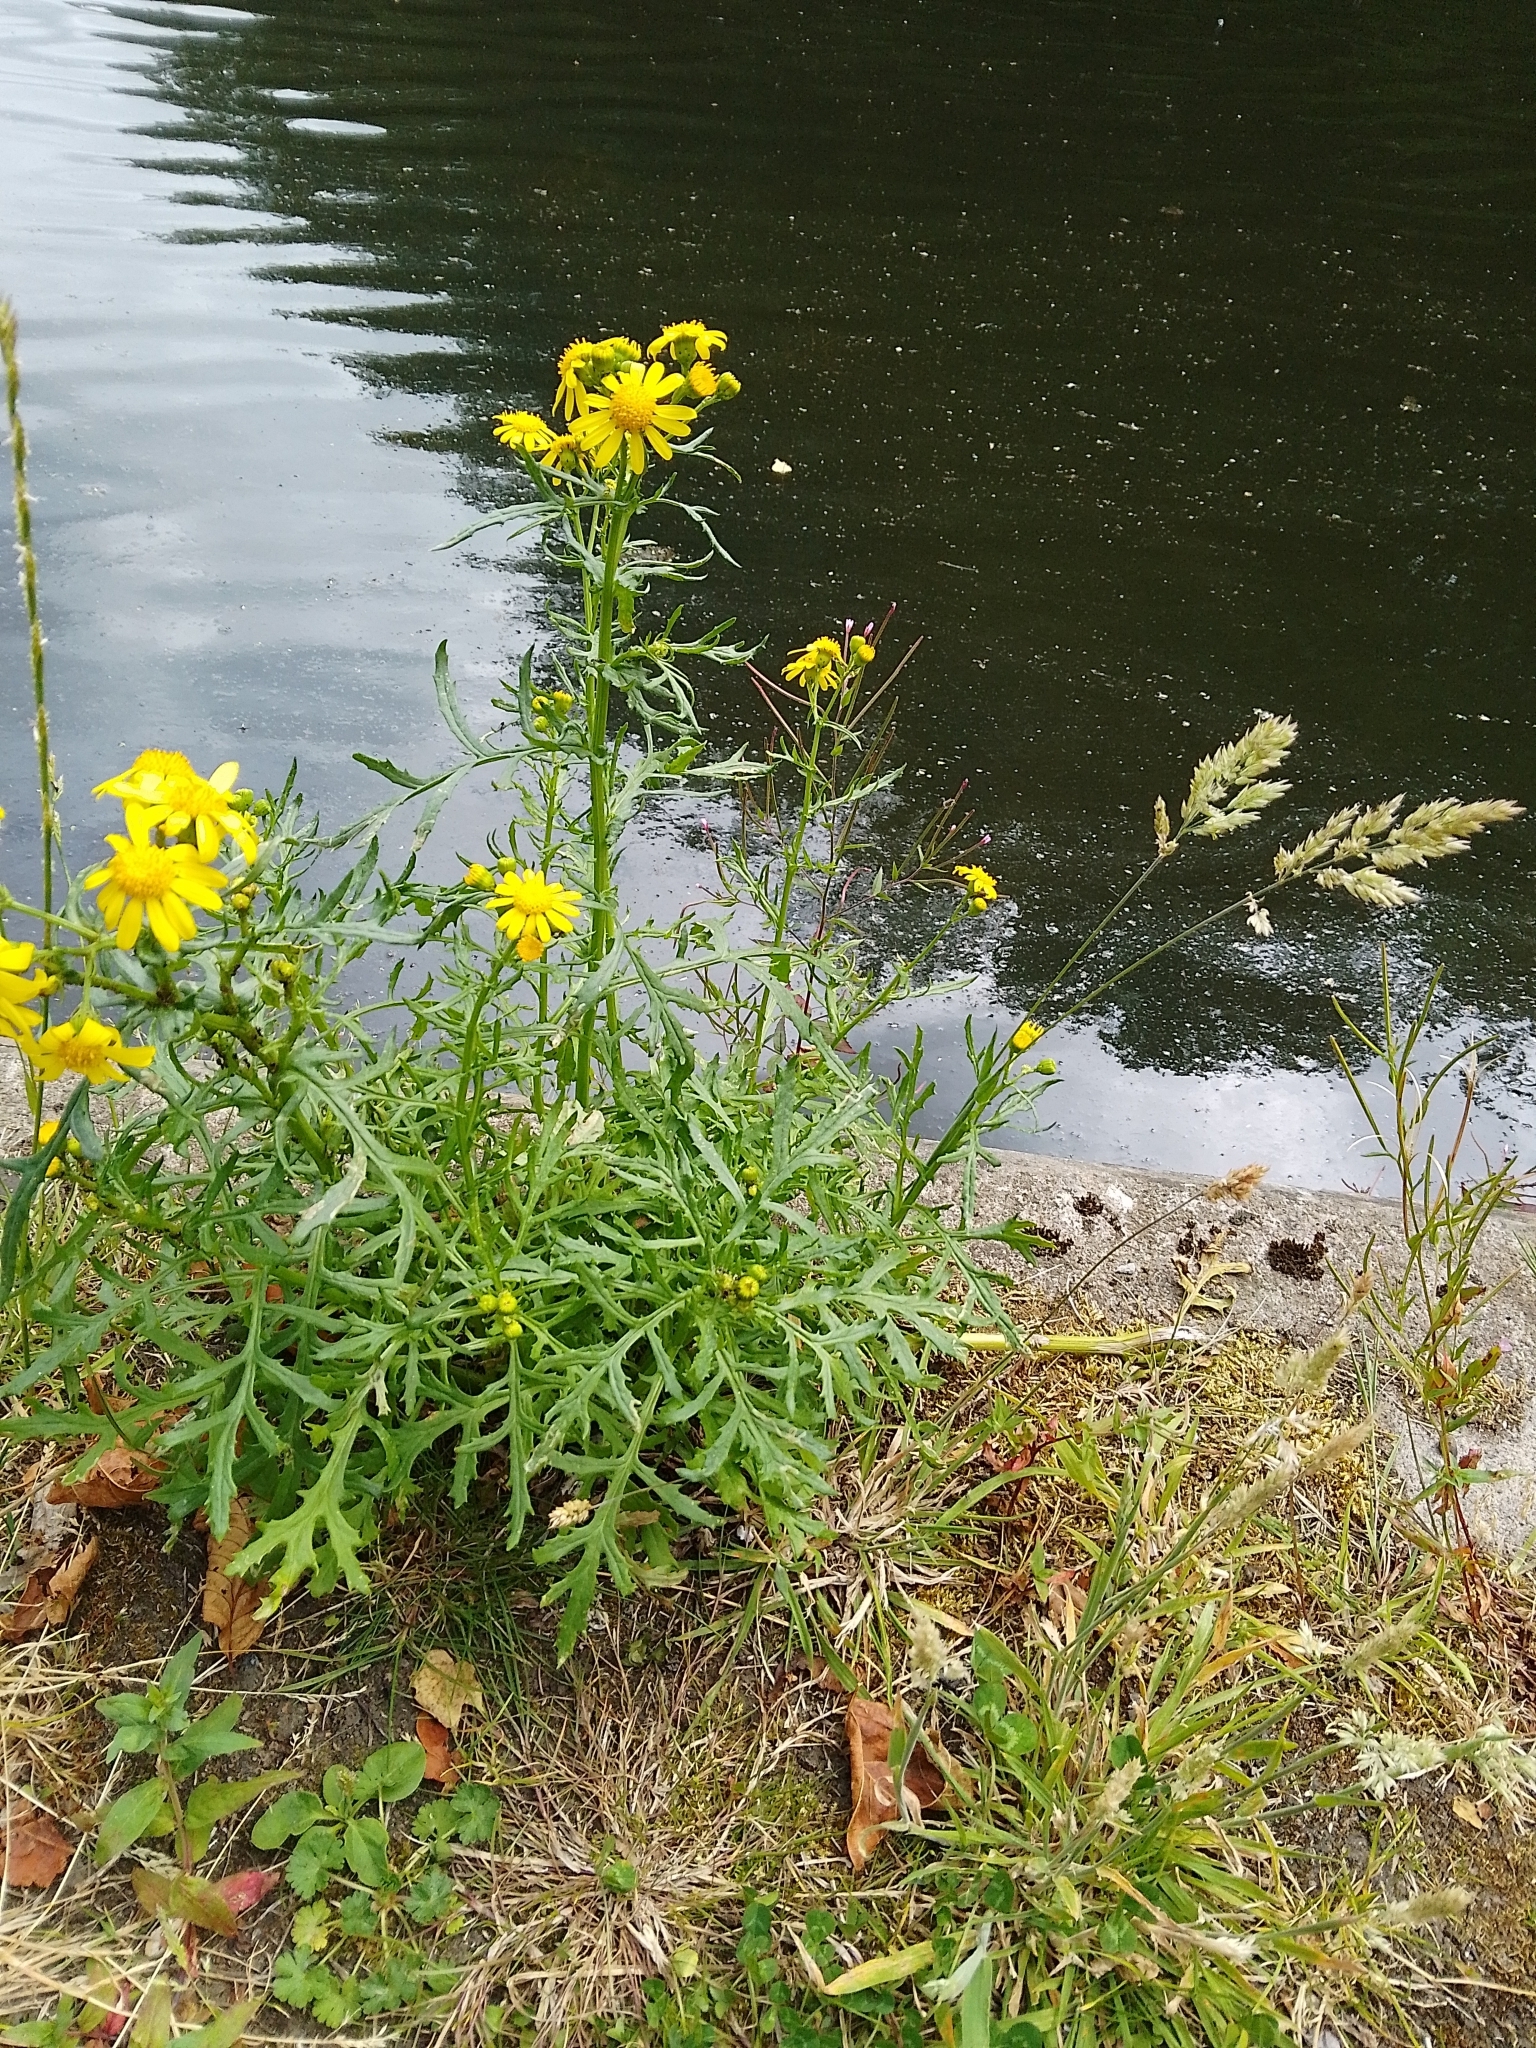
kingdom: Plantae
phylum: Tracheophyta
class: Magnoliopsida
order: Asterales
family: Asteraceae
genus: Senecio
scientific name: Senecio squalidus
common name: Oxford ragwort
